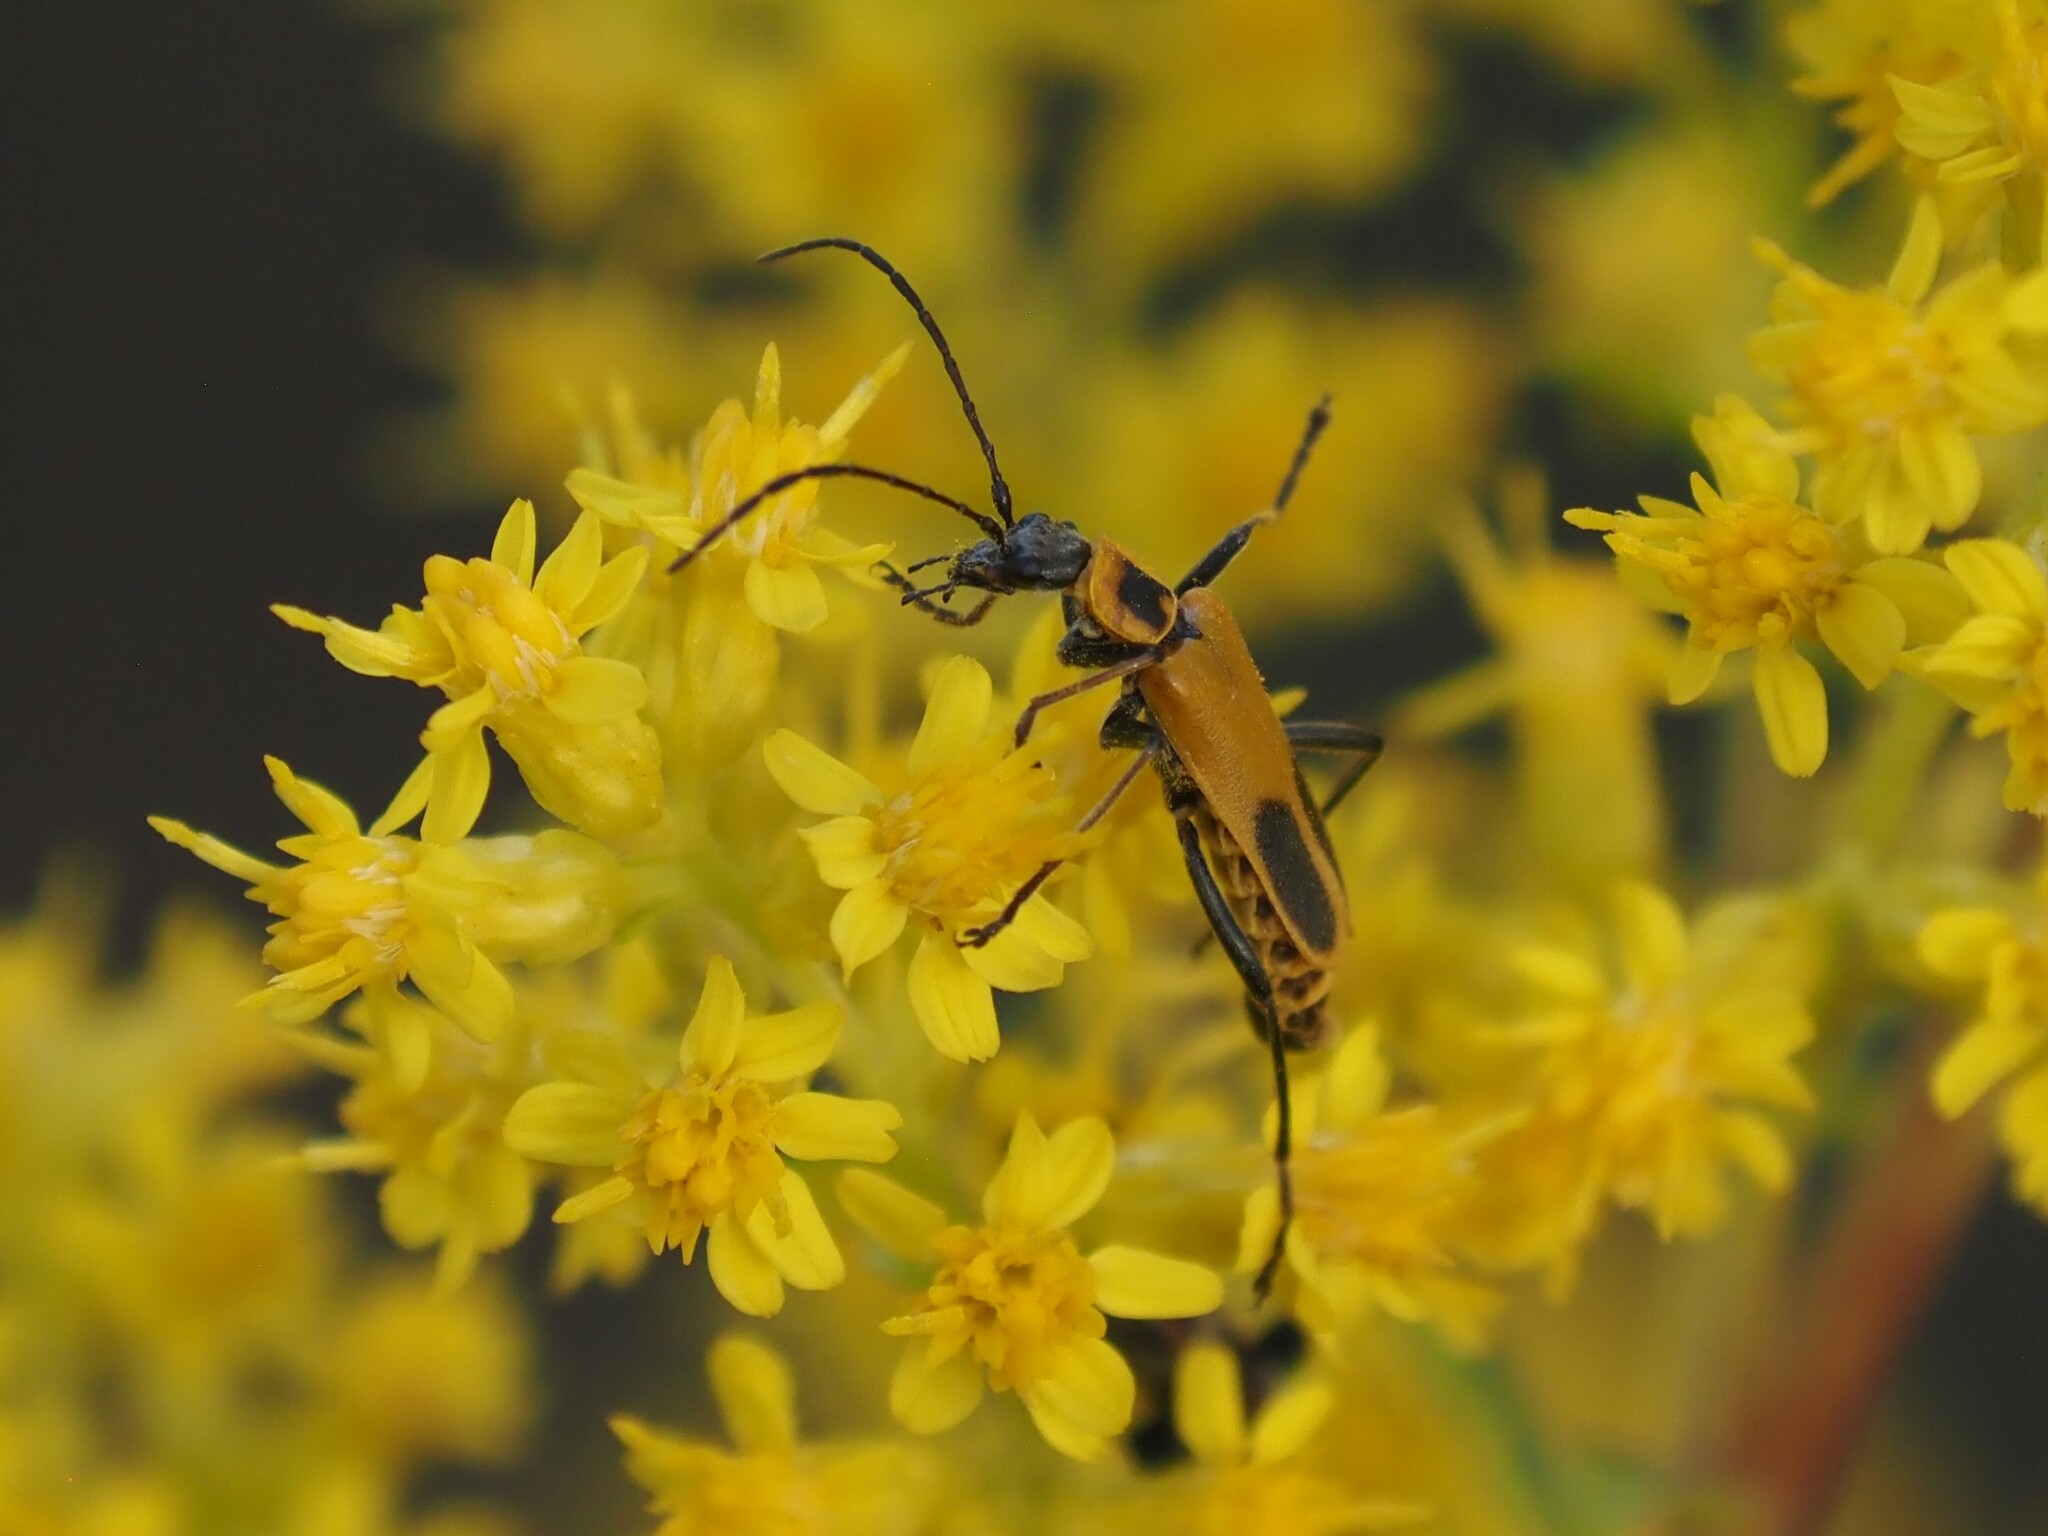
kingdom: Animalia
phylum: Arthropoda
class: Insecta
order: Coleoptera
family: Cantharidae
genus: Chauliognathus
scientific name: Chauliognathus pensylvanicus
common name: Goldenrod soldier beetle
